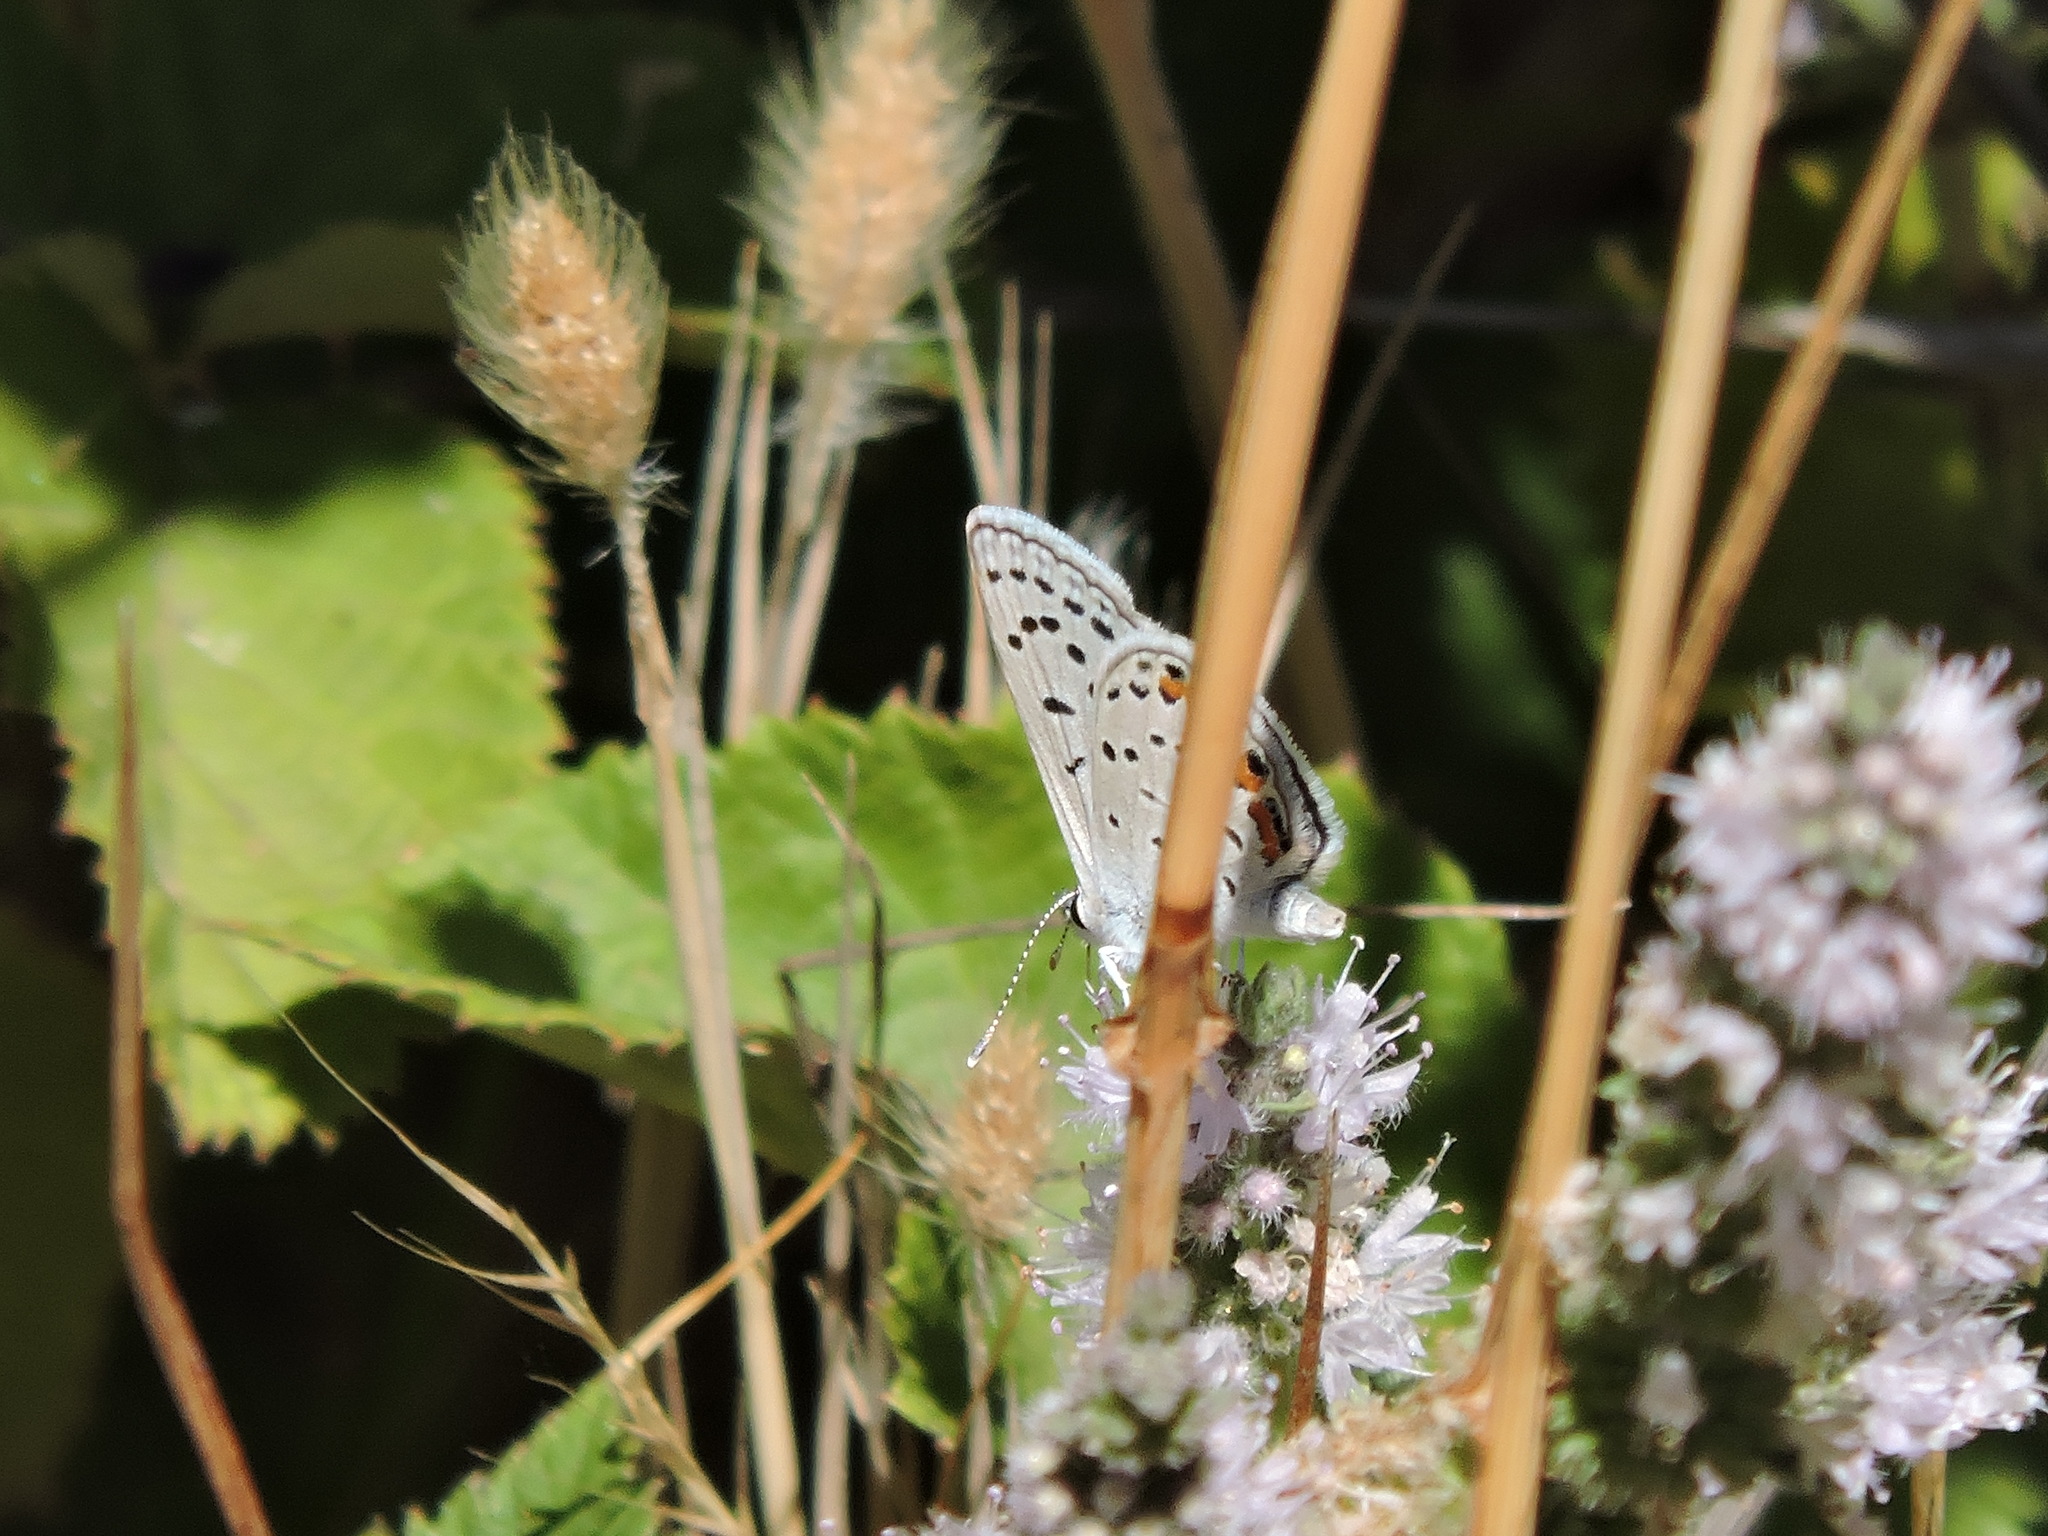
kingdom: Animalia
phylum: Arthropoda
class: Insecta
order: Lepidoptera
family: Lycaenidae
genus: Icaricia
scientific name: Icaricia acmon
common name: Acmon blue
